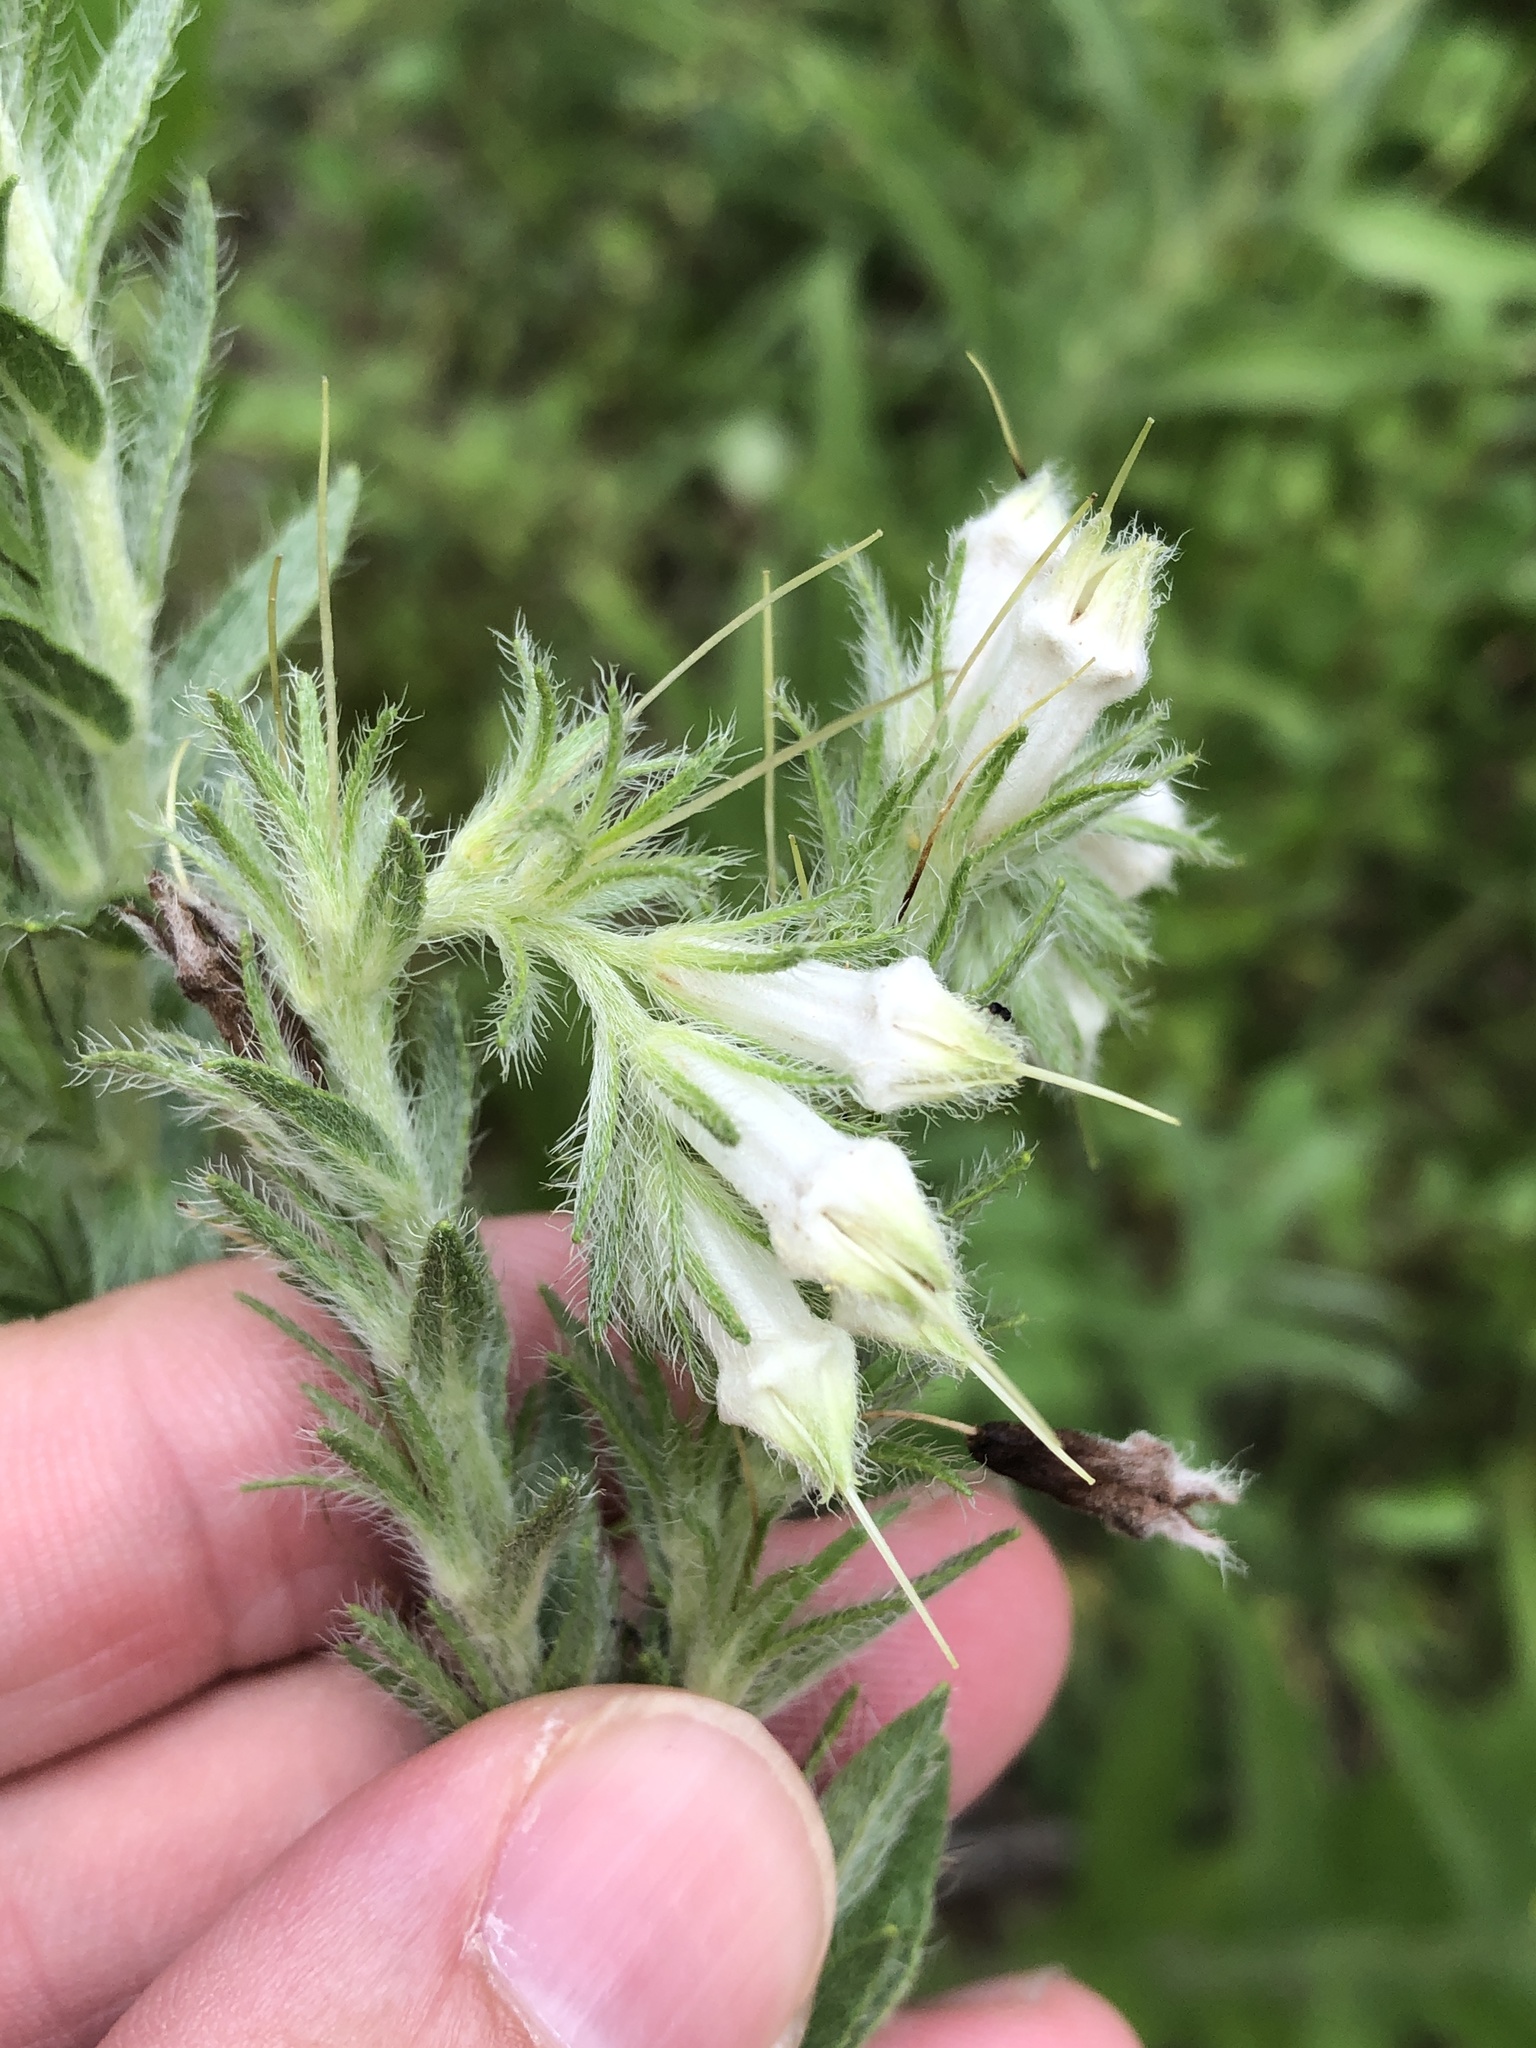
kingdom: Plantae
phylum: Tracheophyta
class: Magnoliopsida
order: Boraginales
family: Boraginaceae
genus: Lithospermum
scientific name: Lithospermum caroliniense
